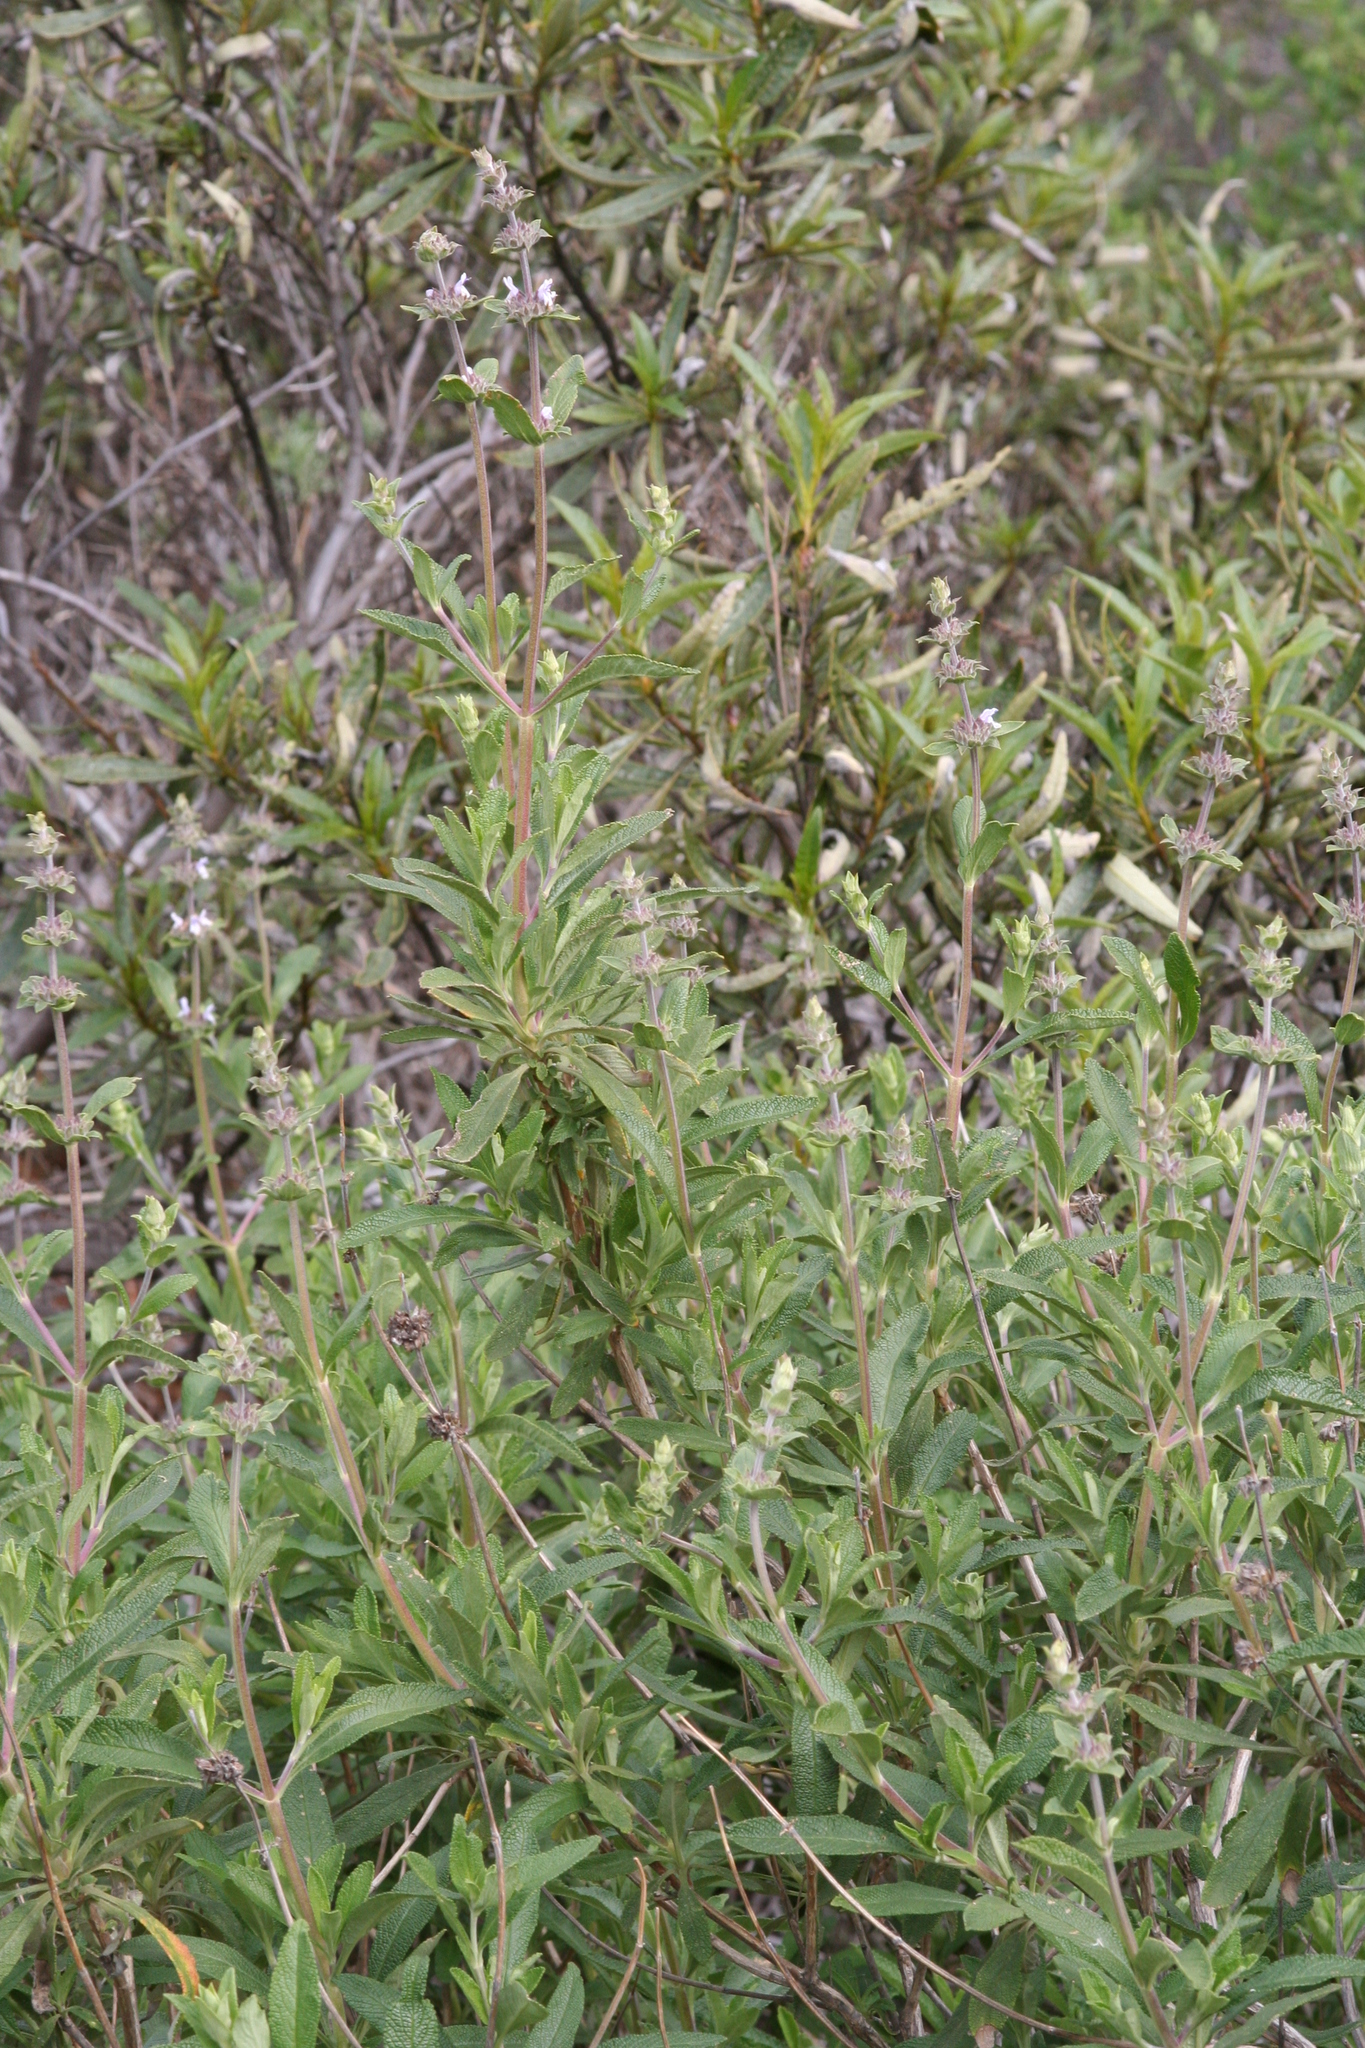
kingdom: Plantae
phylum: Tracheophyta
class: Magnoliopsida
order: Lamiales
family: Lamiaceae
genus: Salvia
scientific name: Salvia mellifera
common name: Black sage
